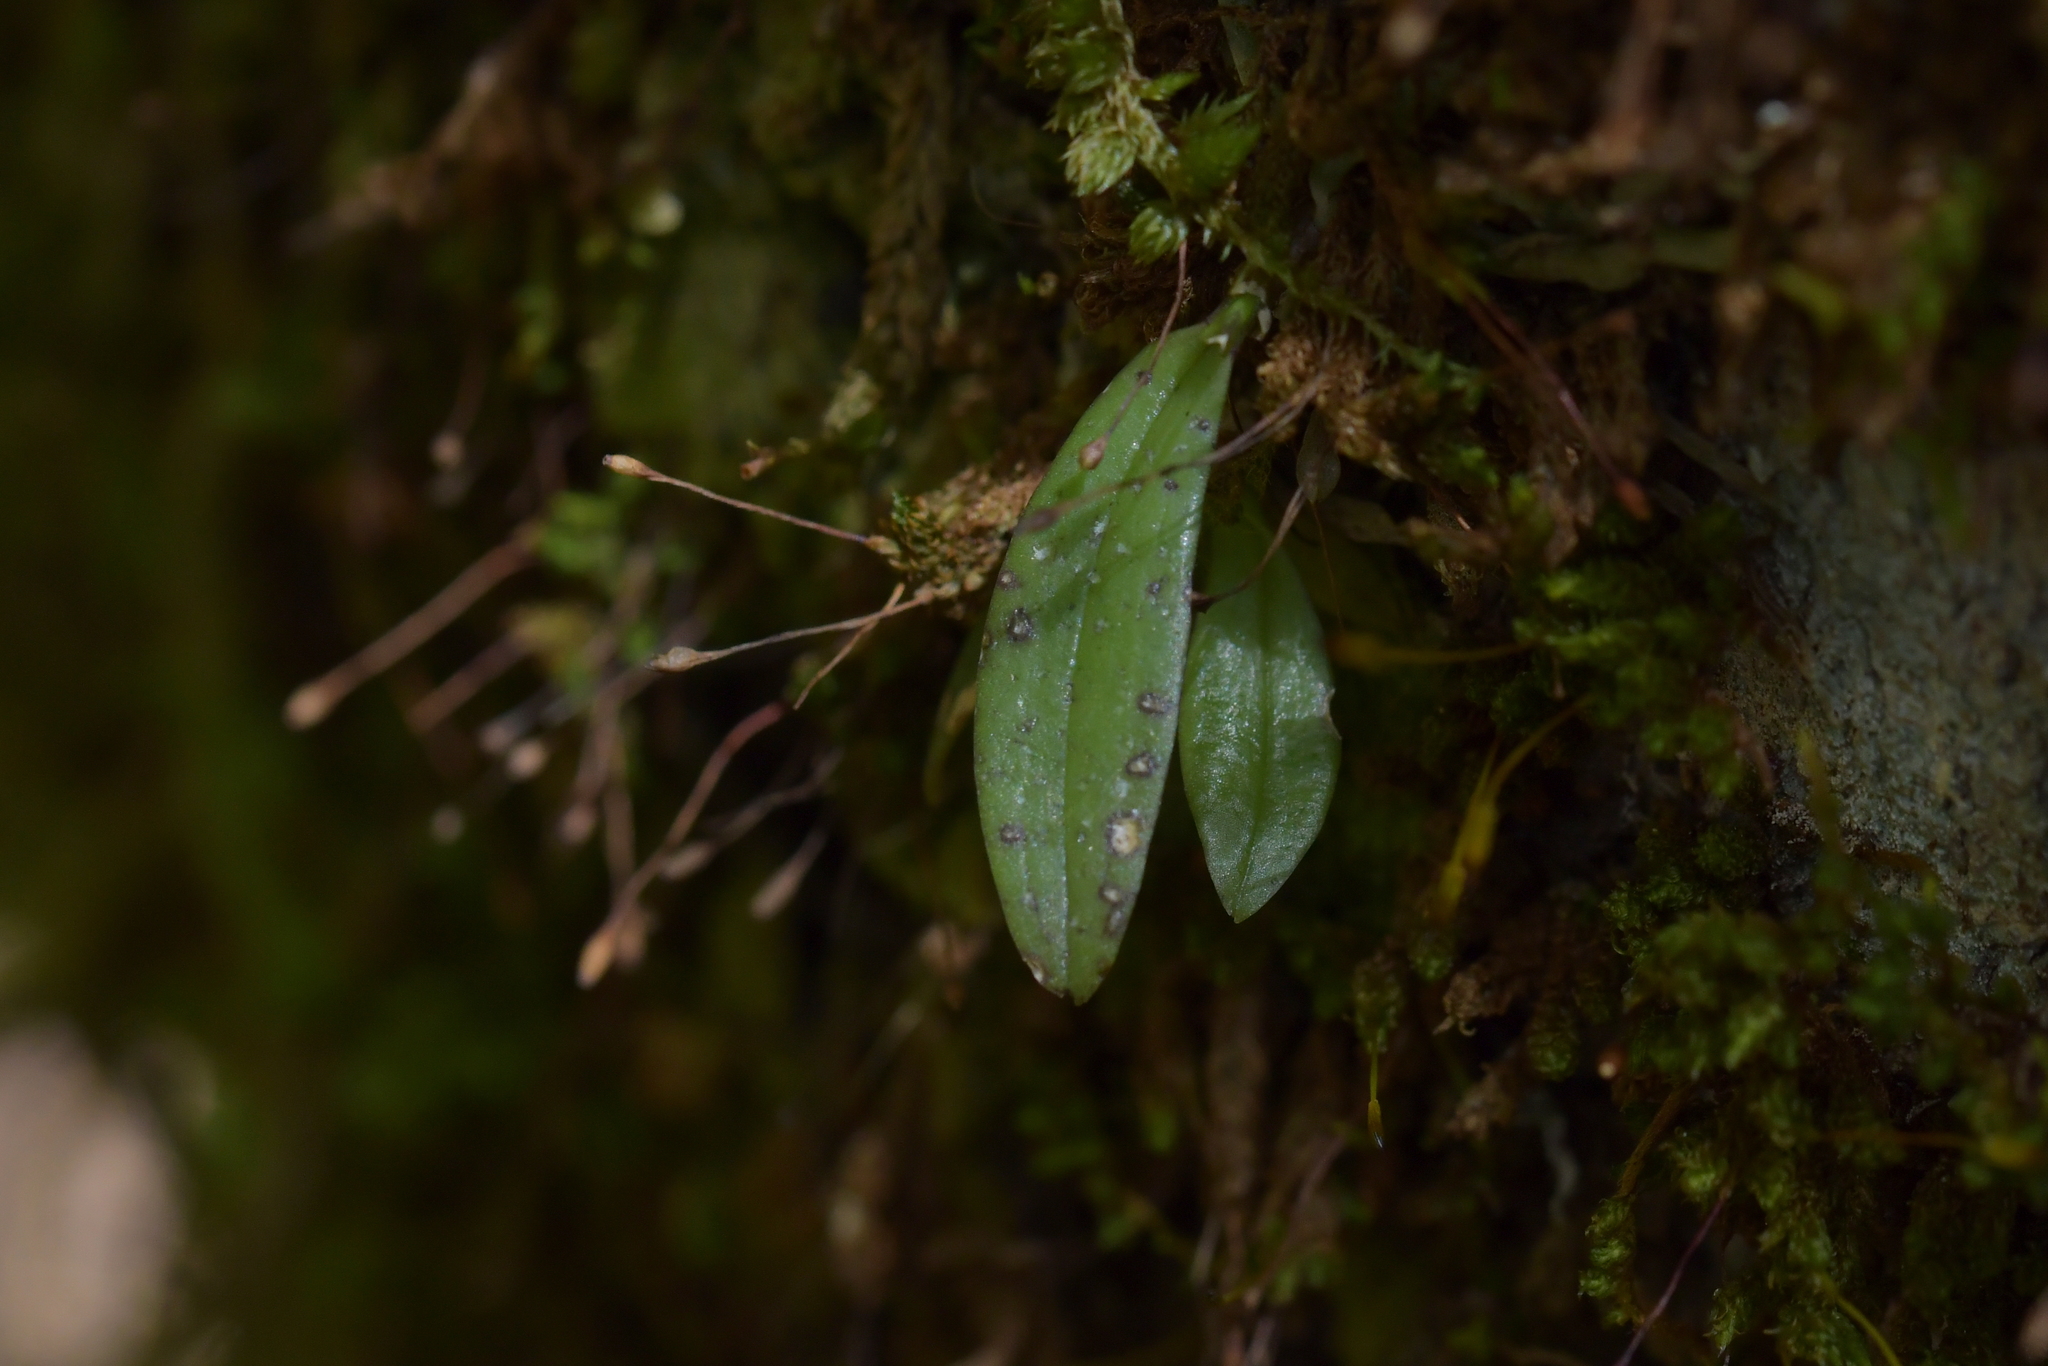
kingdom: Plantae
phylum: Tracheophyta
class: Liliopsida
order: Asparagales
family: Orchidaceae
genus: Drymoanthus
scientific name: Drymoanthus adversus
